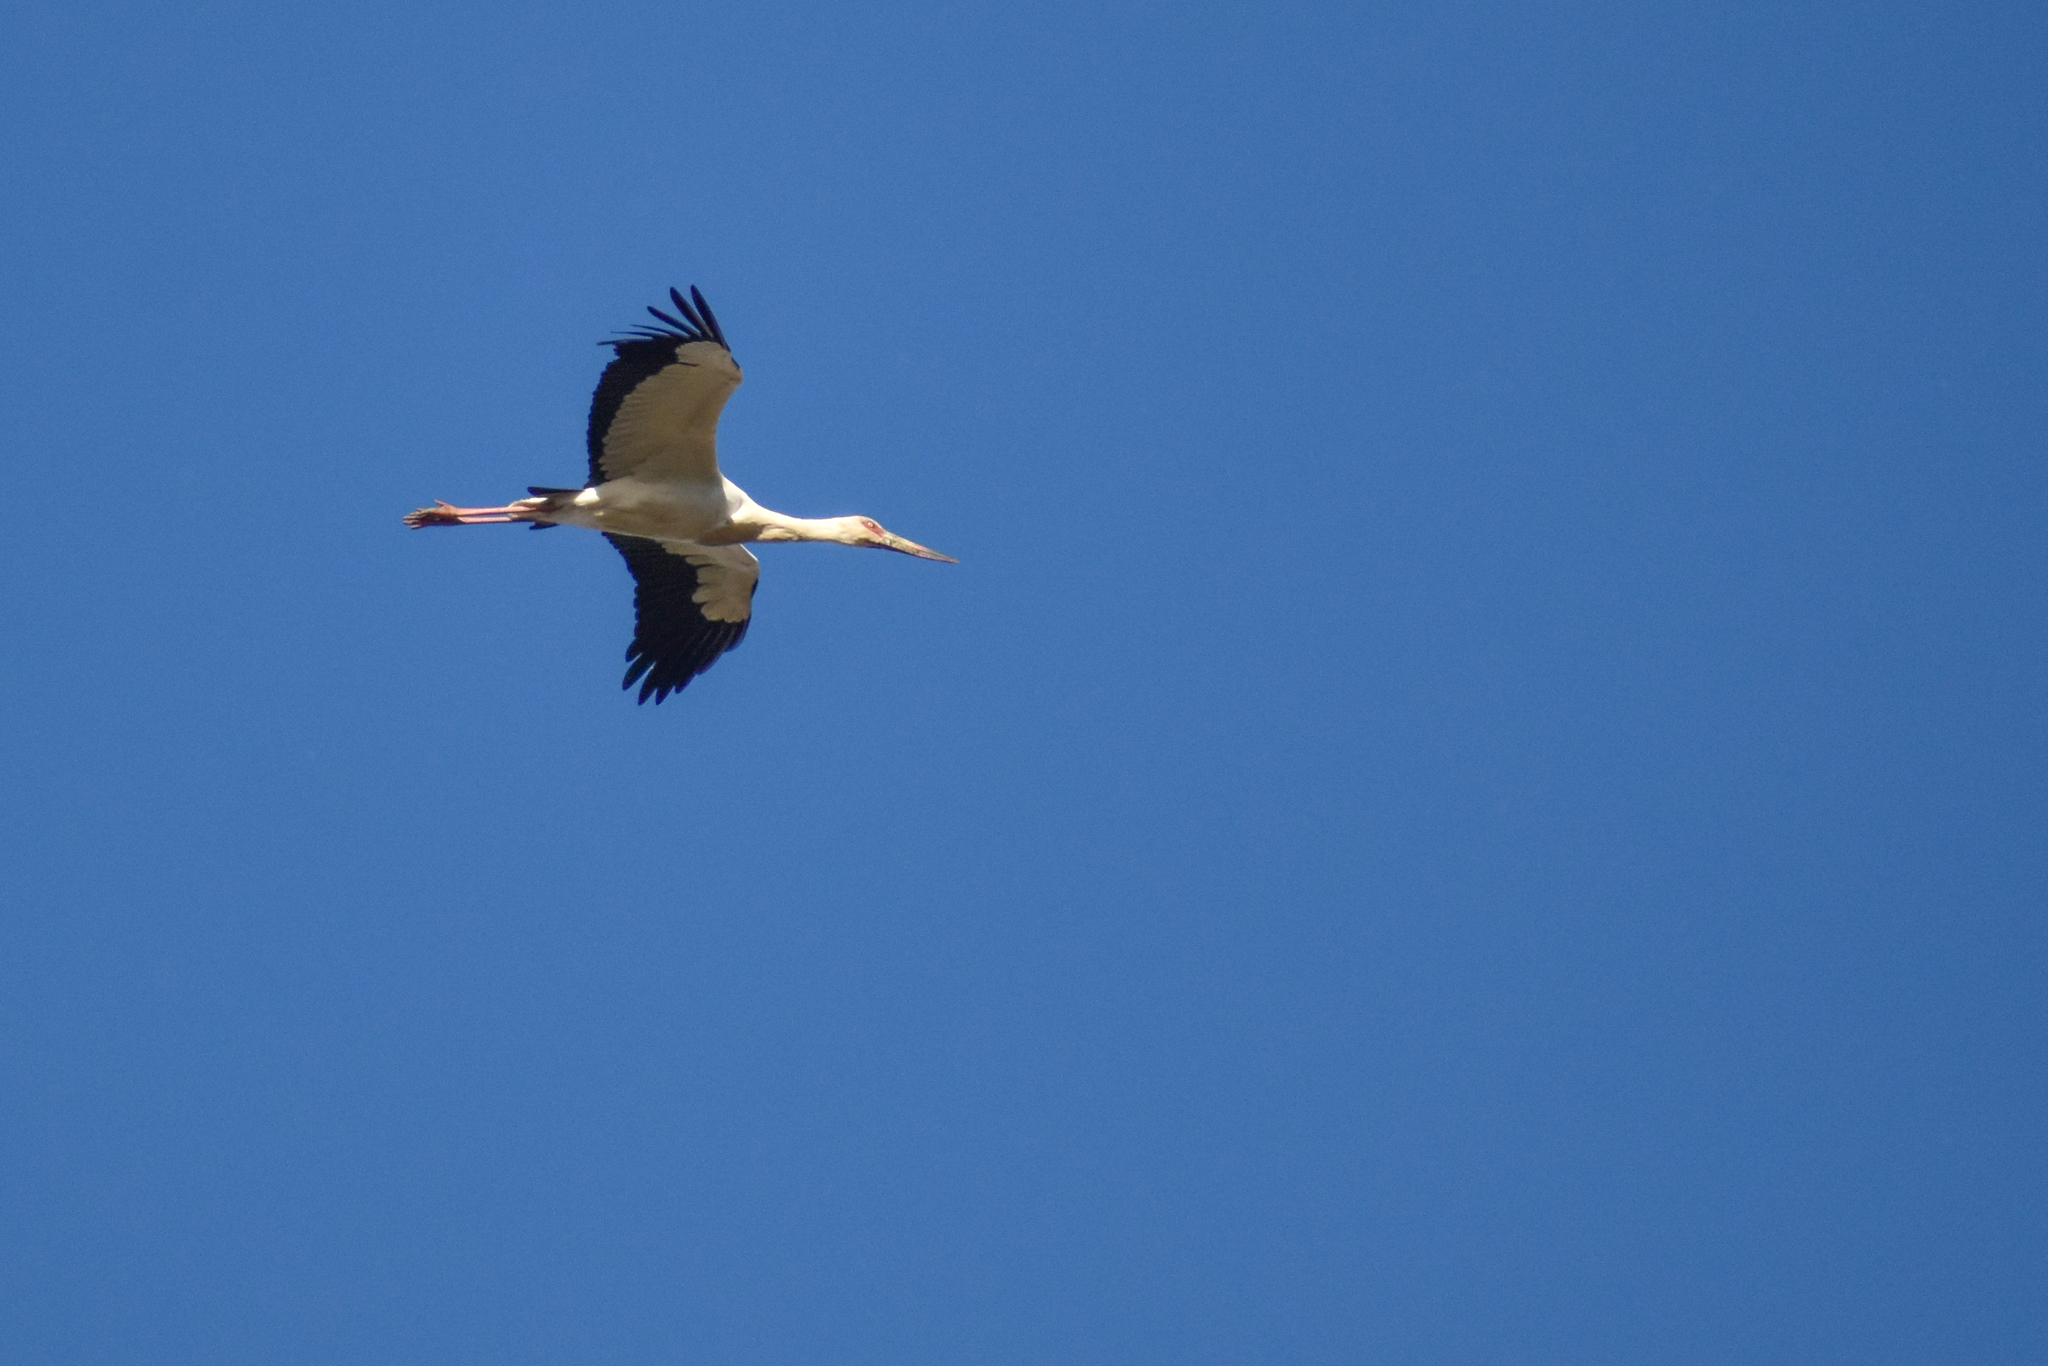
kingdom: Animalia
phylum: Chordata
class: Aves
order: Ciconiiformes
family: Ciconiidae
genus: Ciconia
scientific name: Ciconia maguari
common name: Maguari stork
